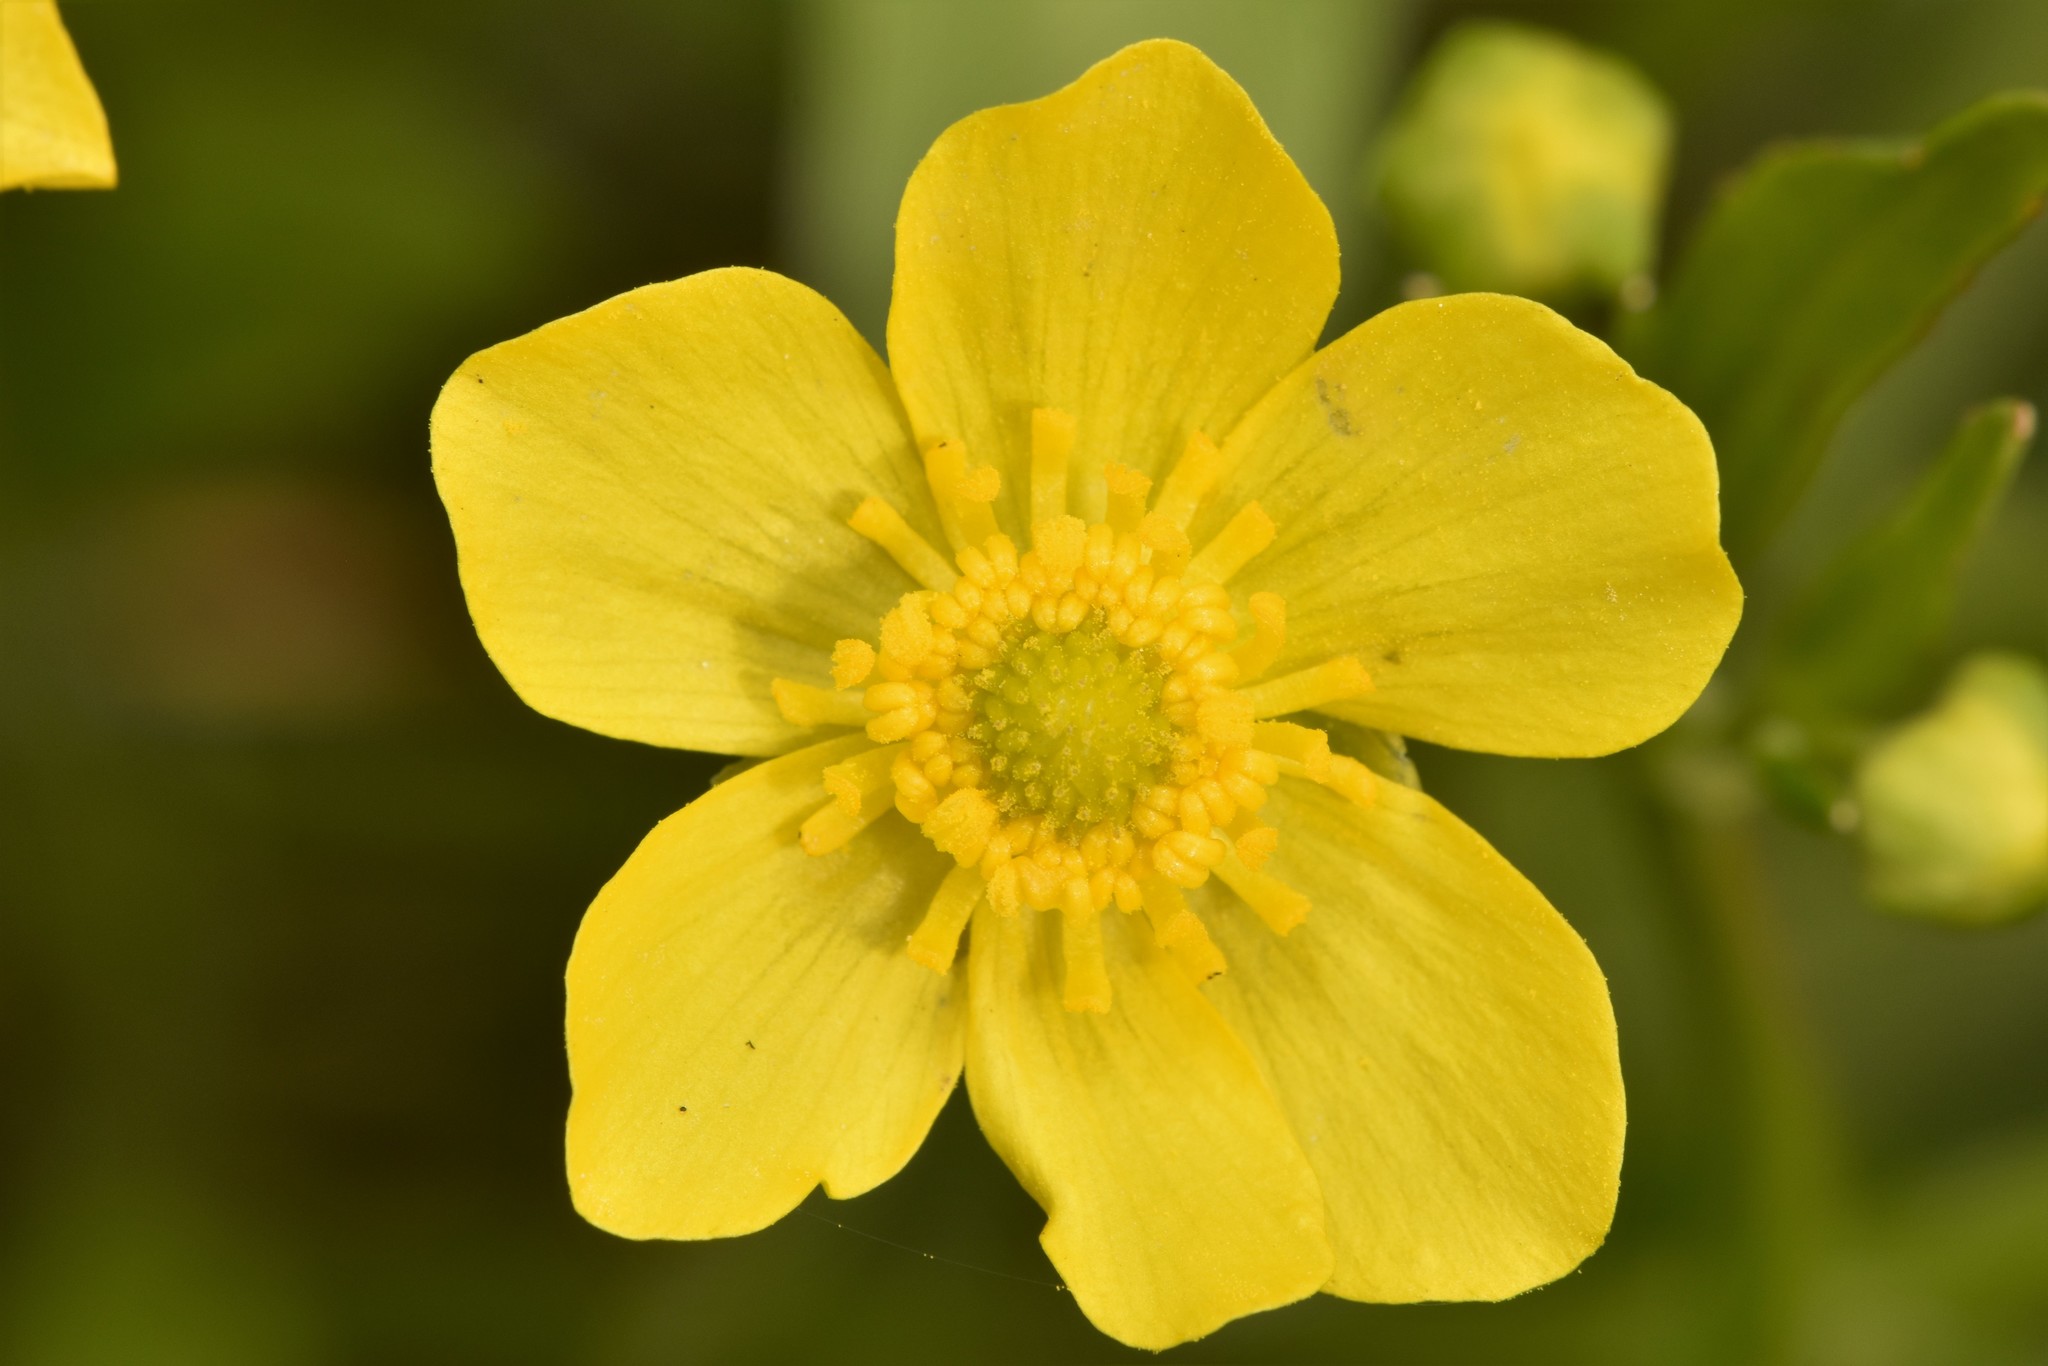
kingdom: Plantae
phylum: Tracheophyta
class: Magnoliopsida
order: Ranunculales
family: Ranunculaceae
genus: Ranunculus
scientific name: Ranunculus alismifolius
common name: Plantain-leaved buttercup
